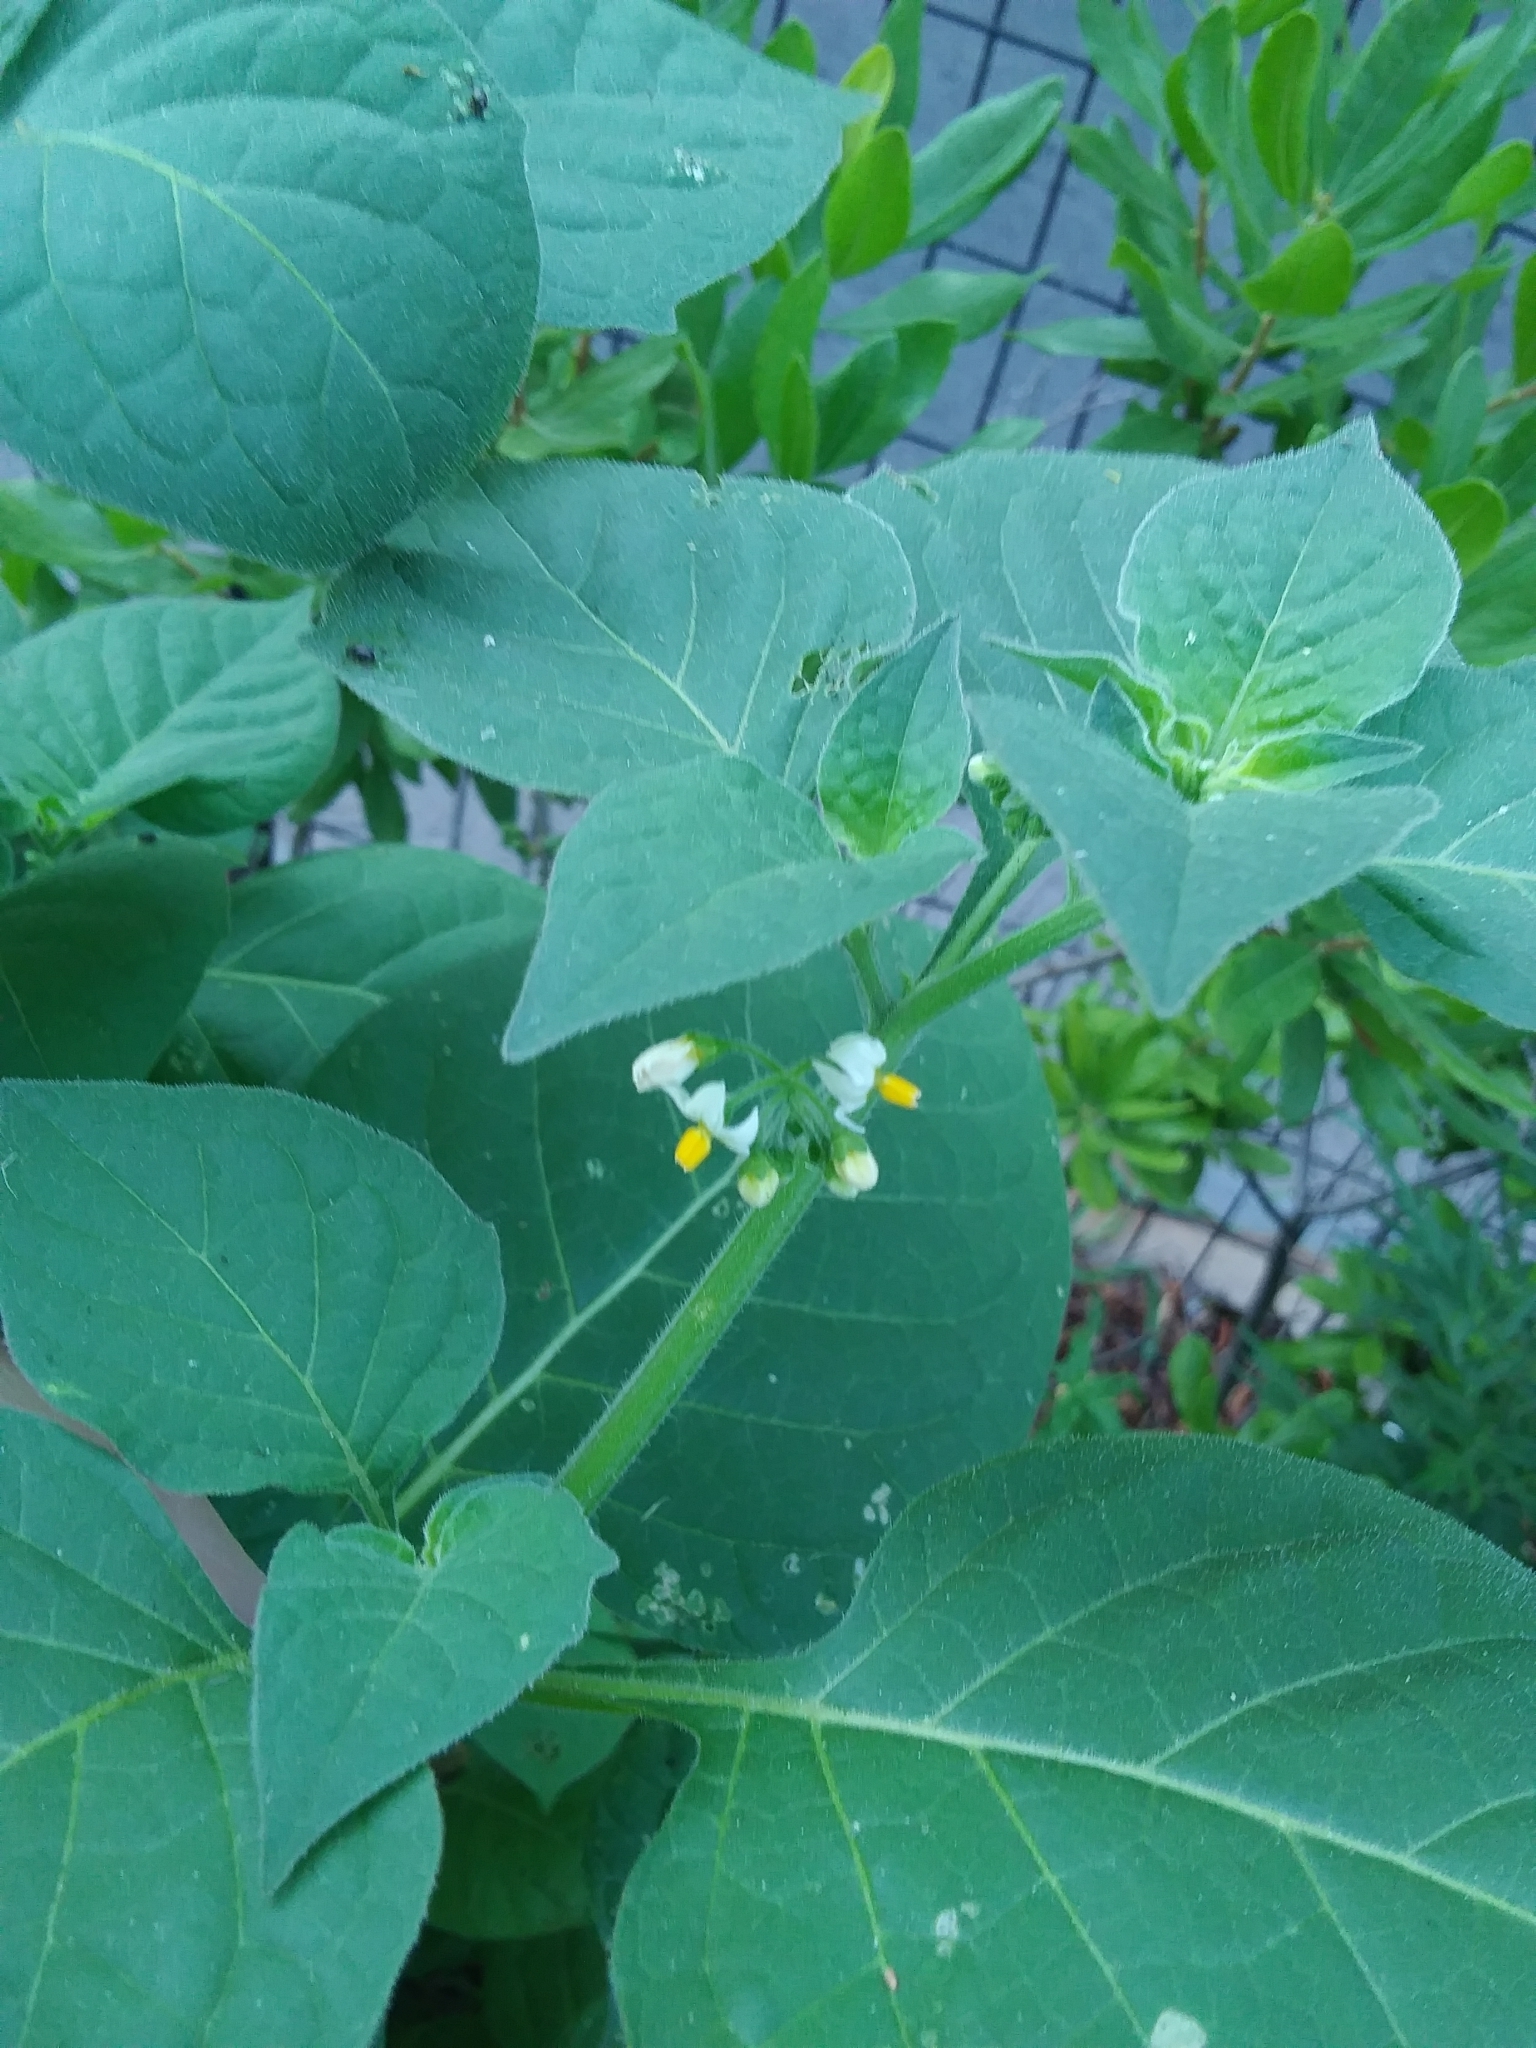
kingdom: Plantae
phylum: Tracheophyta
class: Magnoliopsida
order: Solanales
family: Solanaceae
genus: Solanum
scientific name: Solanum nigrum
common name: Black nightshade
